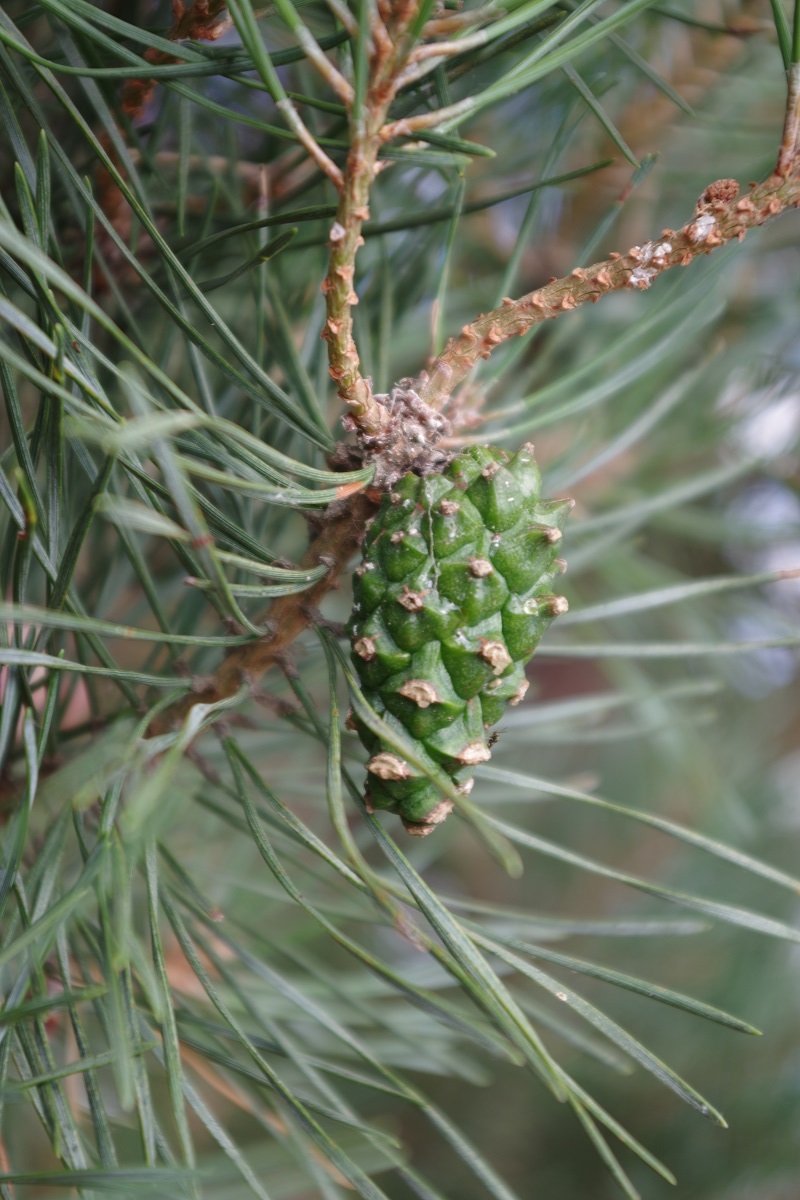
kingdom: Plantae
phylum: Tracheophyta
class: Pinopsida
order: Pinales
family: Pinaceae
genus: Pinus
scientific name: Pinus sylvestris
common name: Scots pine
